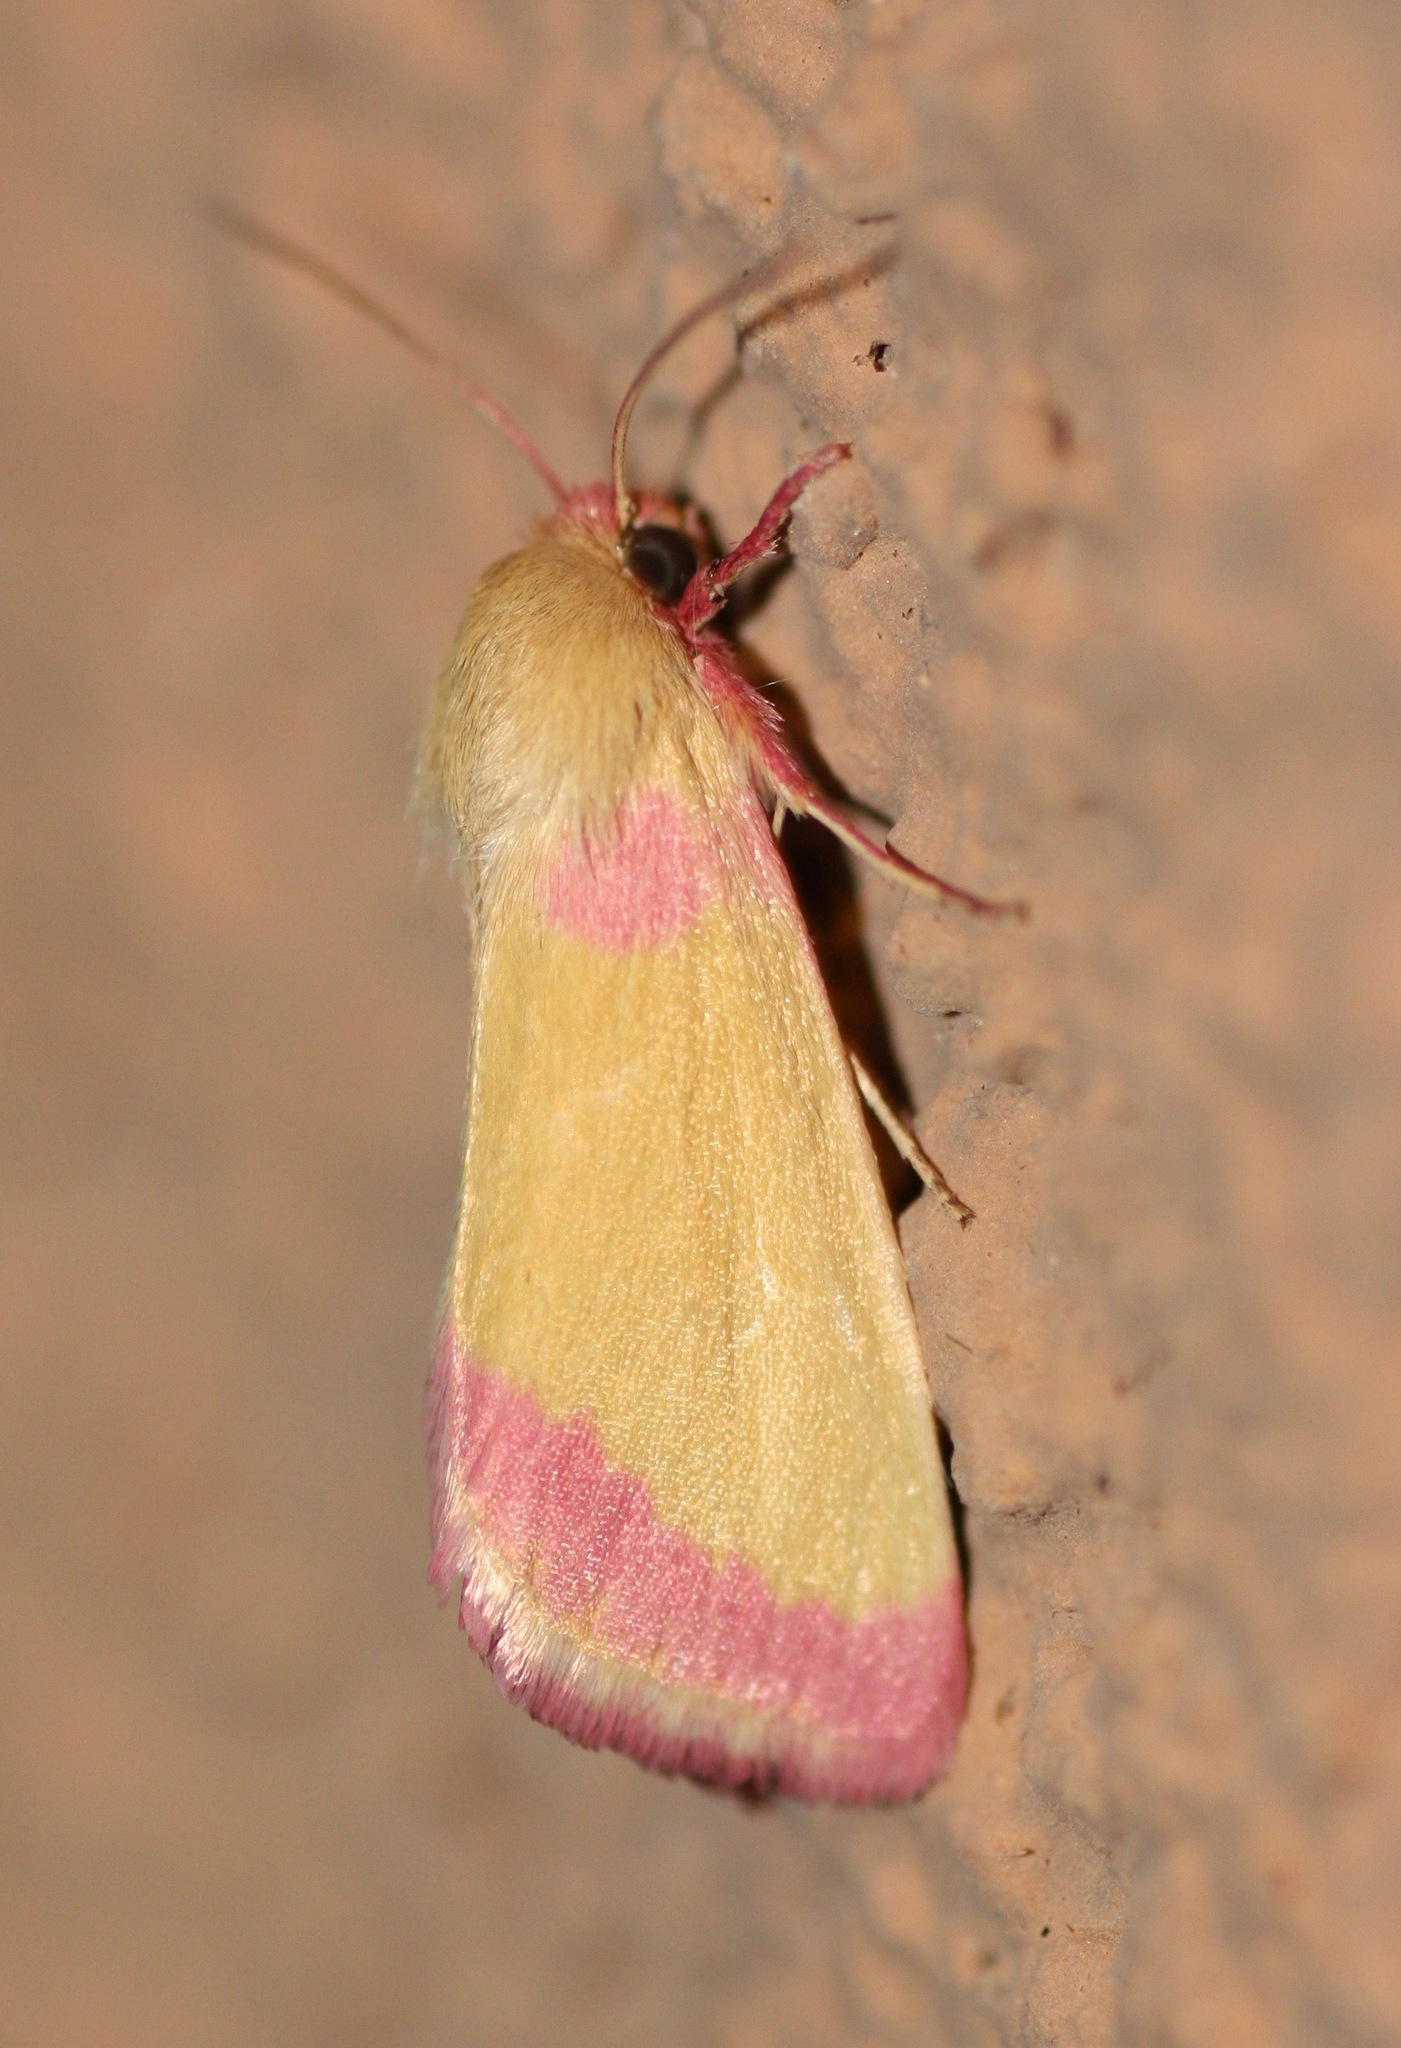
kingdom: Animalia
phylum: Arthropoda
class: Insecta
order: Lepidoptera
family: Noctuidae
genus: Heliocheilus
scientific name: Heliocheilus toralis
